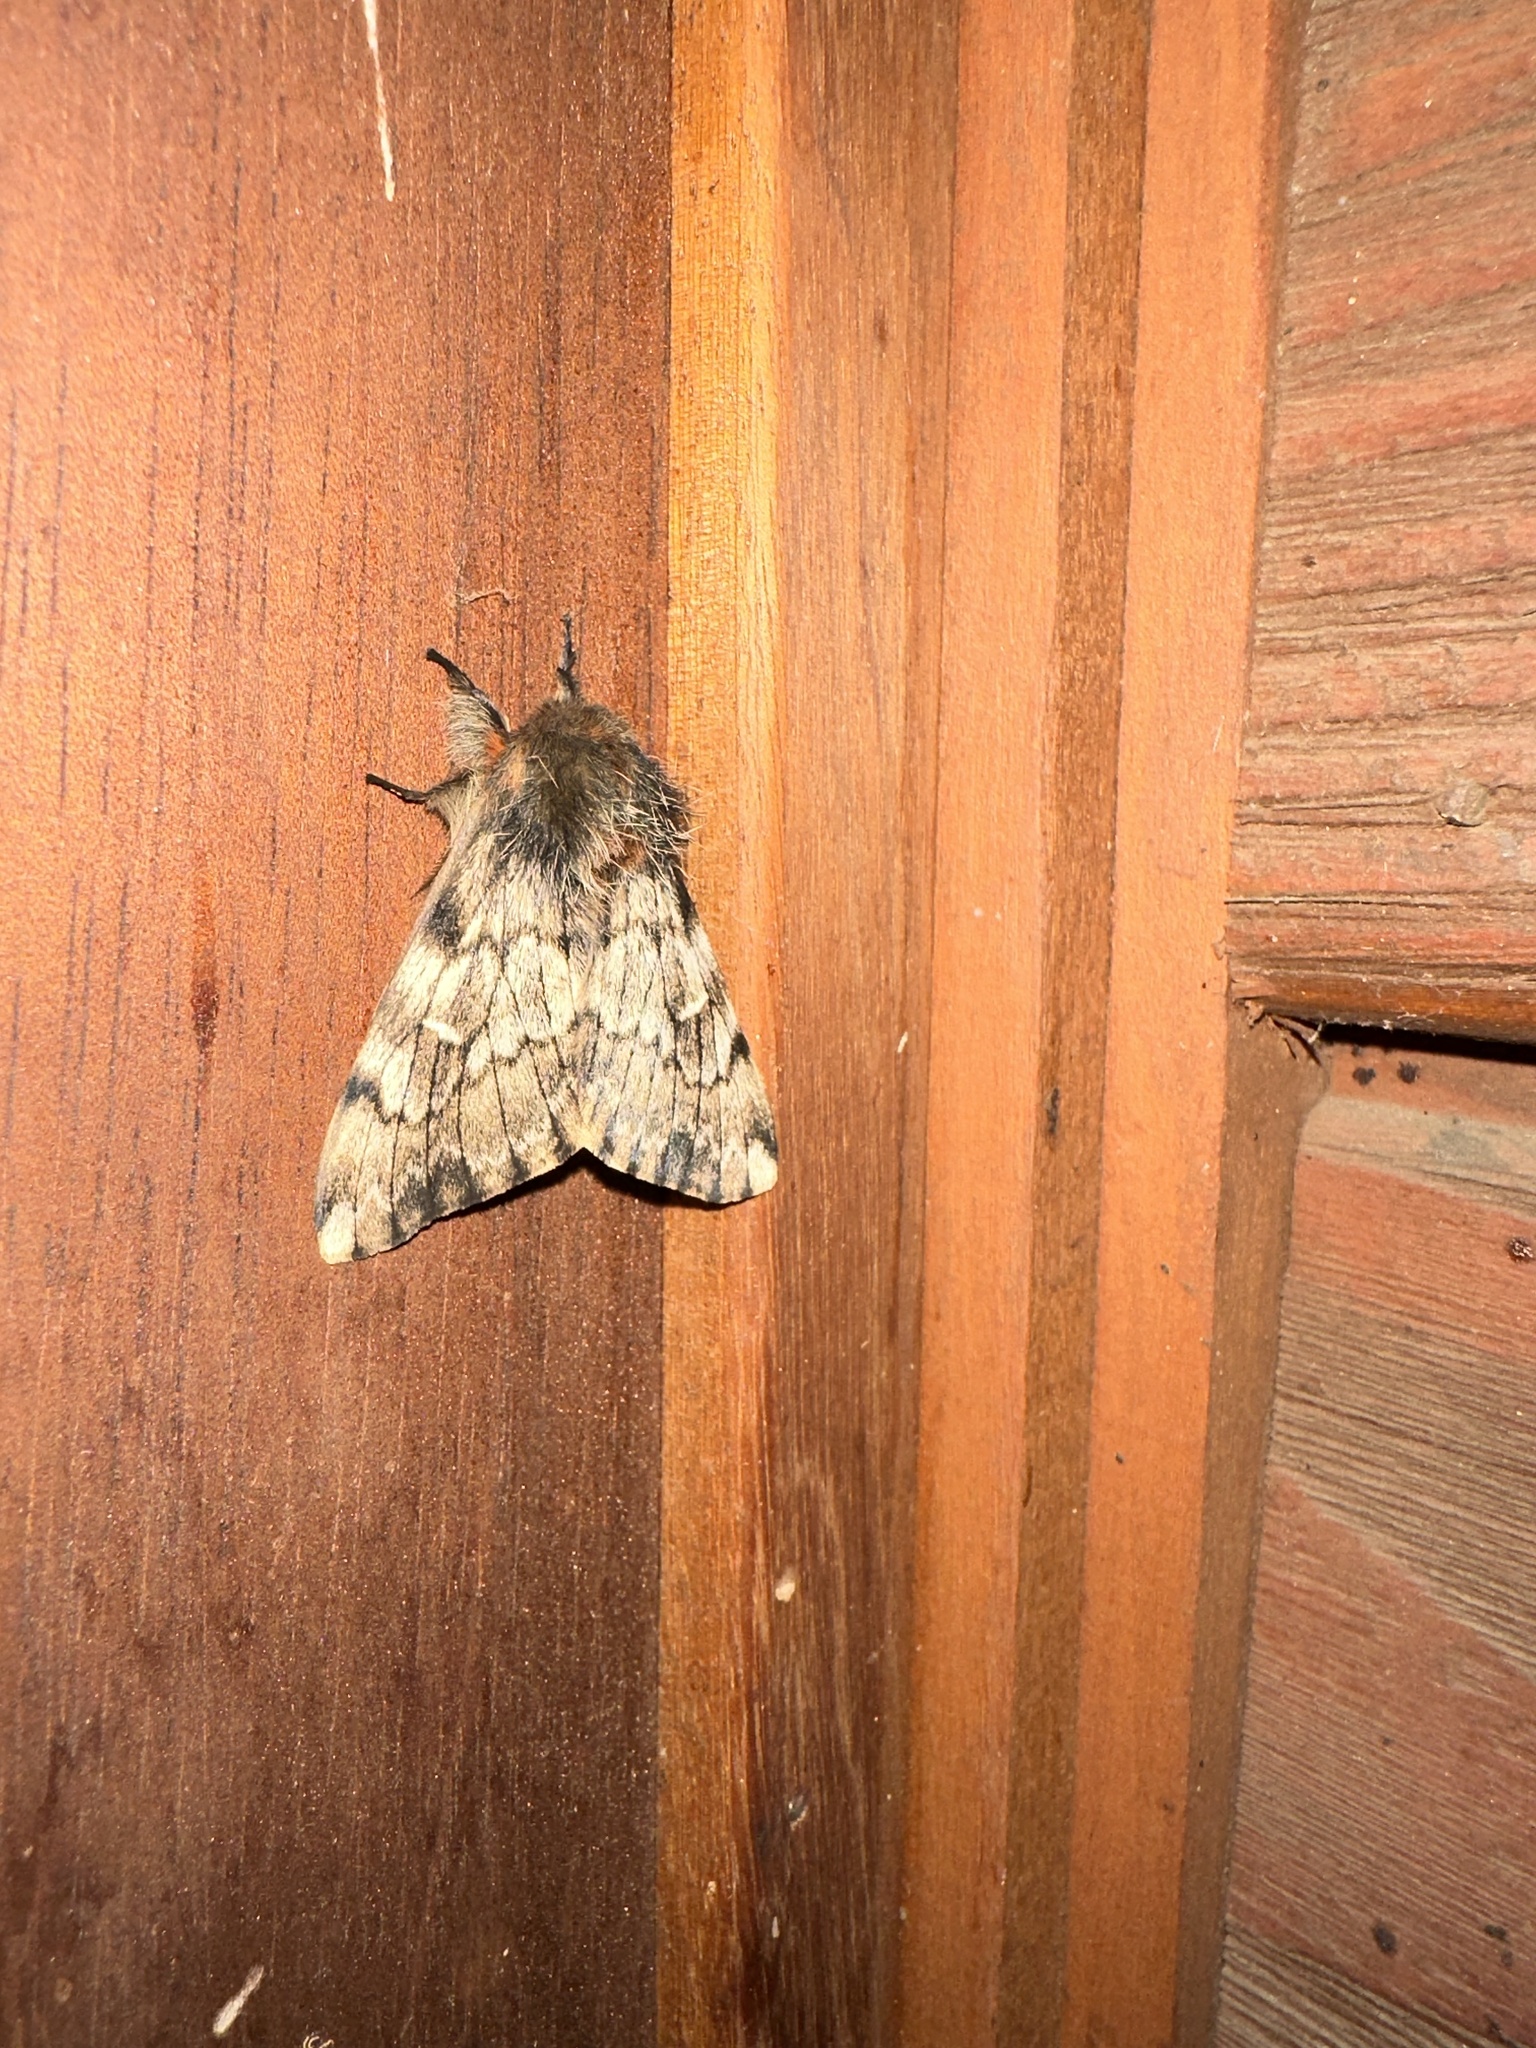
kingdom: Animalia
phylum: Arthropoda
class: Insecta
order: Lepidoptera
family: Saturniidae
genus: Ormiscodes
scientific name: Ormiscodes nigrosignata
